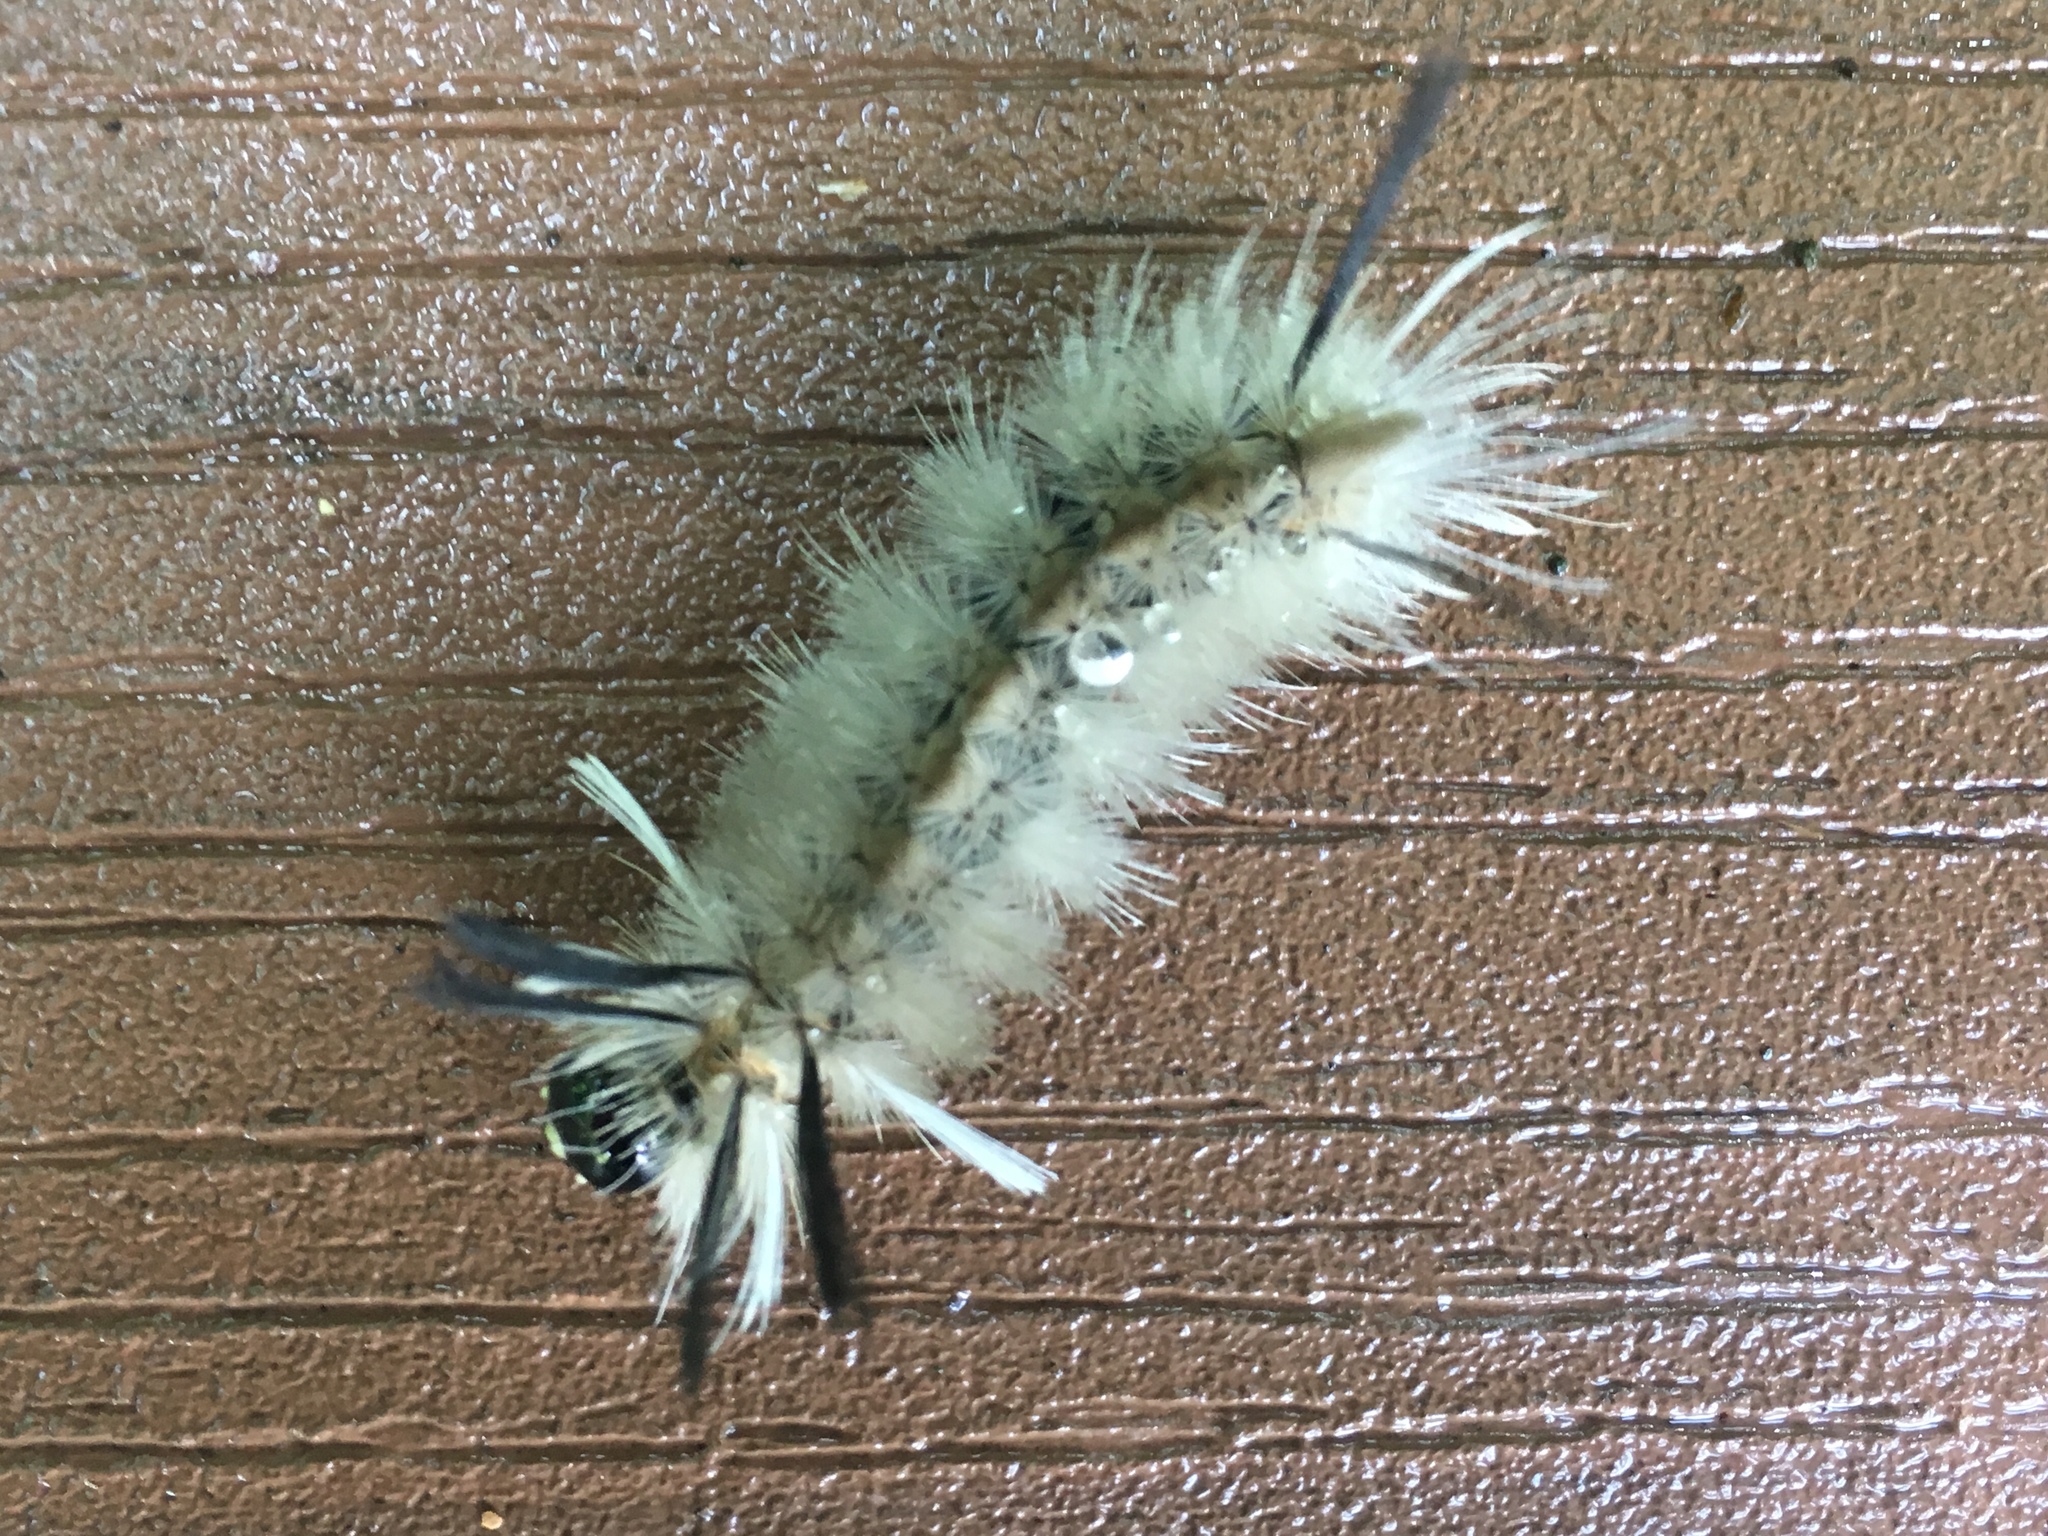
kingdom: Animalia
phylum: Arthropoda
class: Insecta
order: Lepidoptera
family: Erebidae
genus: Halysidota
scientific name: Halysidota tessellaris
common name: Banded tussock moth
